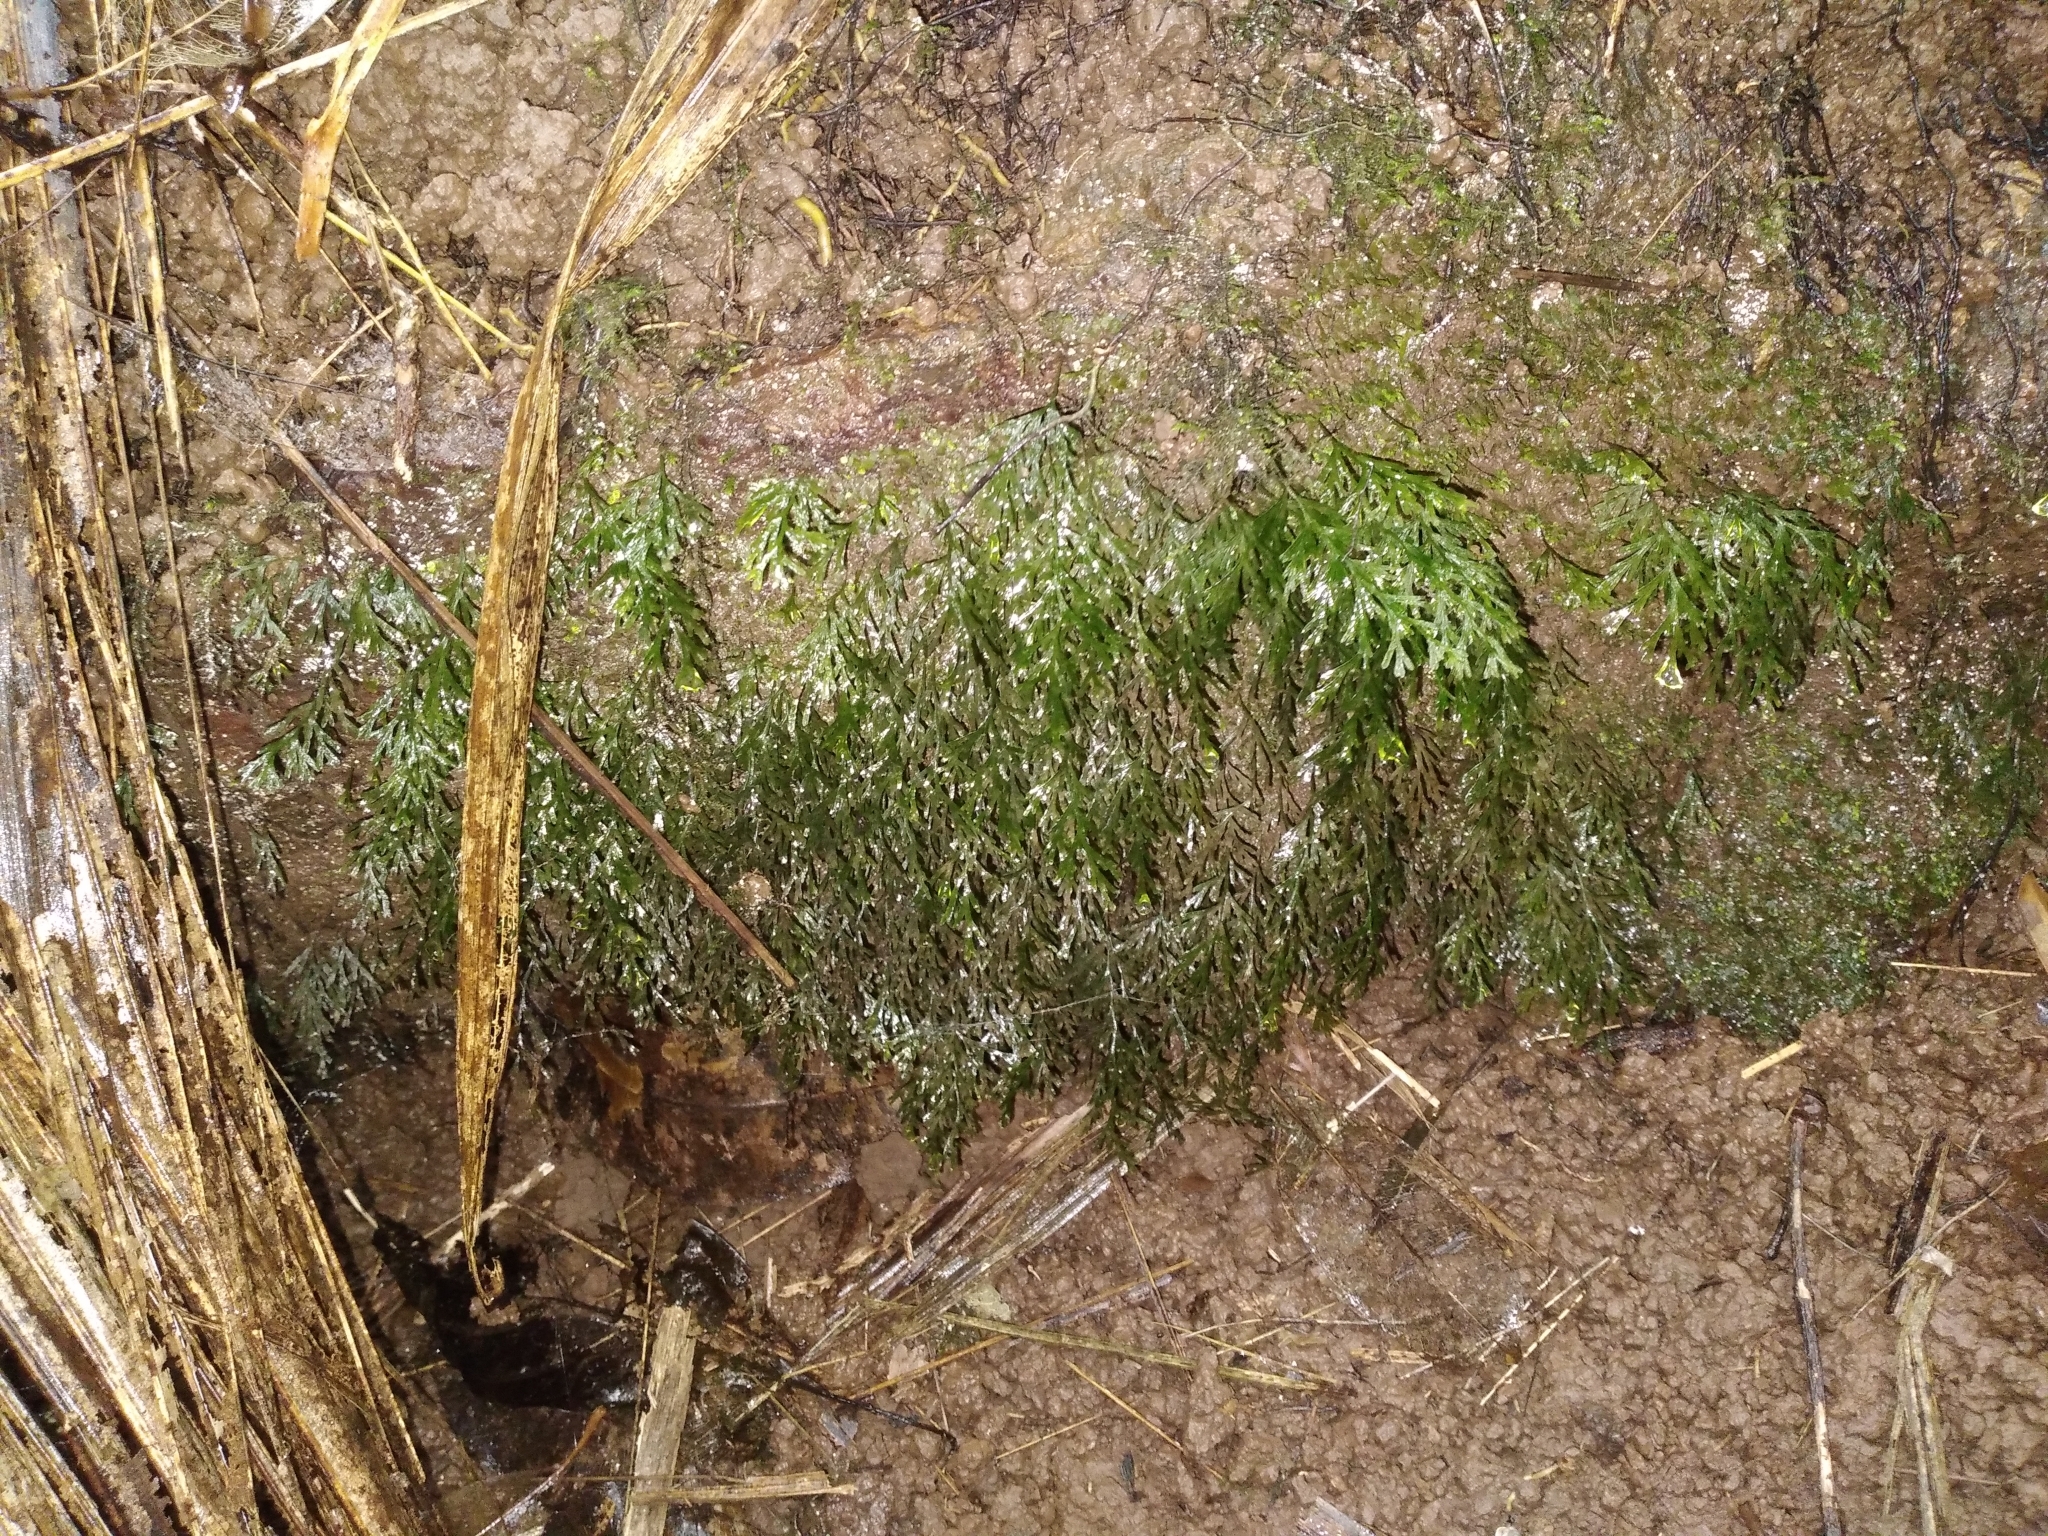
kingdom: Plantae
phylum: Tracheophyta
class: Polypodiopsida
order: Hymenophyllales
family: Hymenophyllaceae
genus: Polyphlebium
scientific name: Polyphlebium endlicherianum
